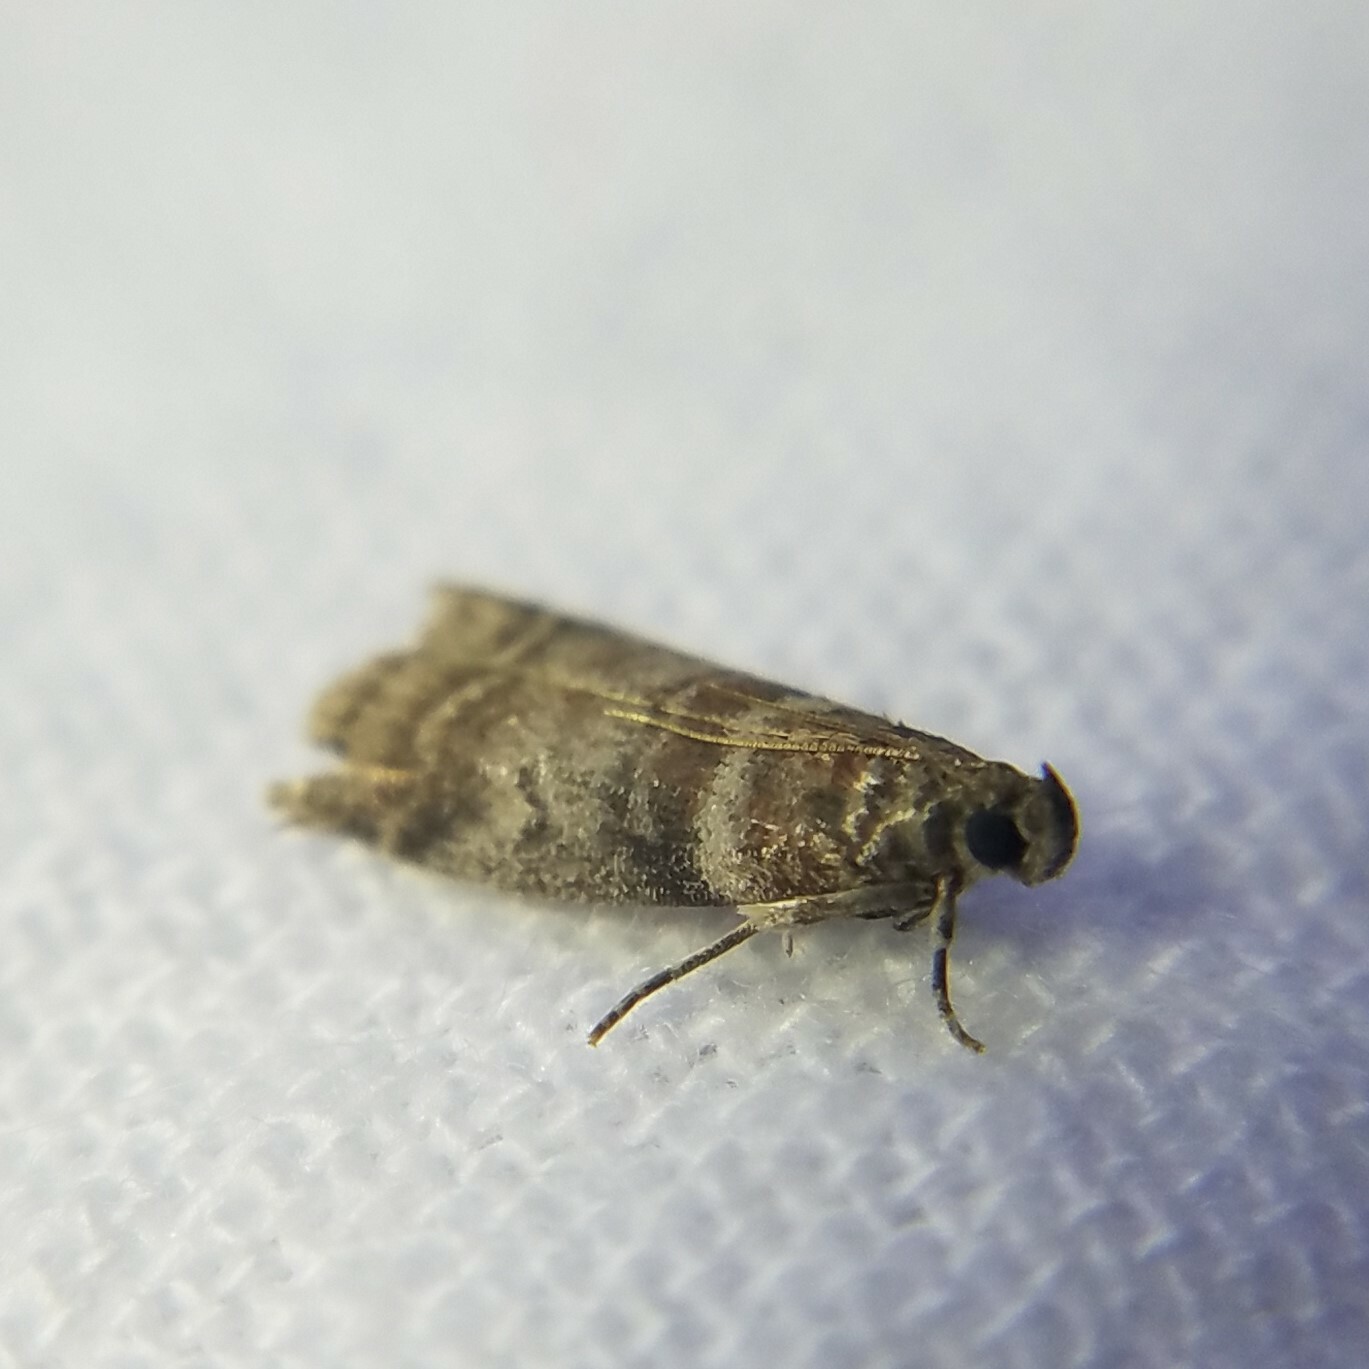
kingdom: Animalia
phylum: Arthropoda
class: Insecta
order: Lepidoptera
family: Pyralidae
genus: Sciota
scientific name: Sciota uvinella
